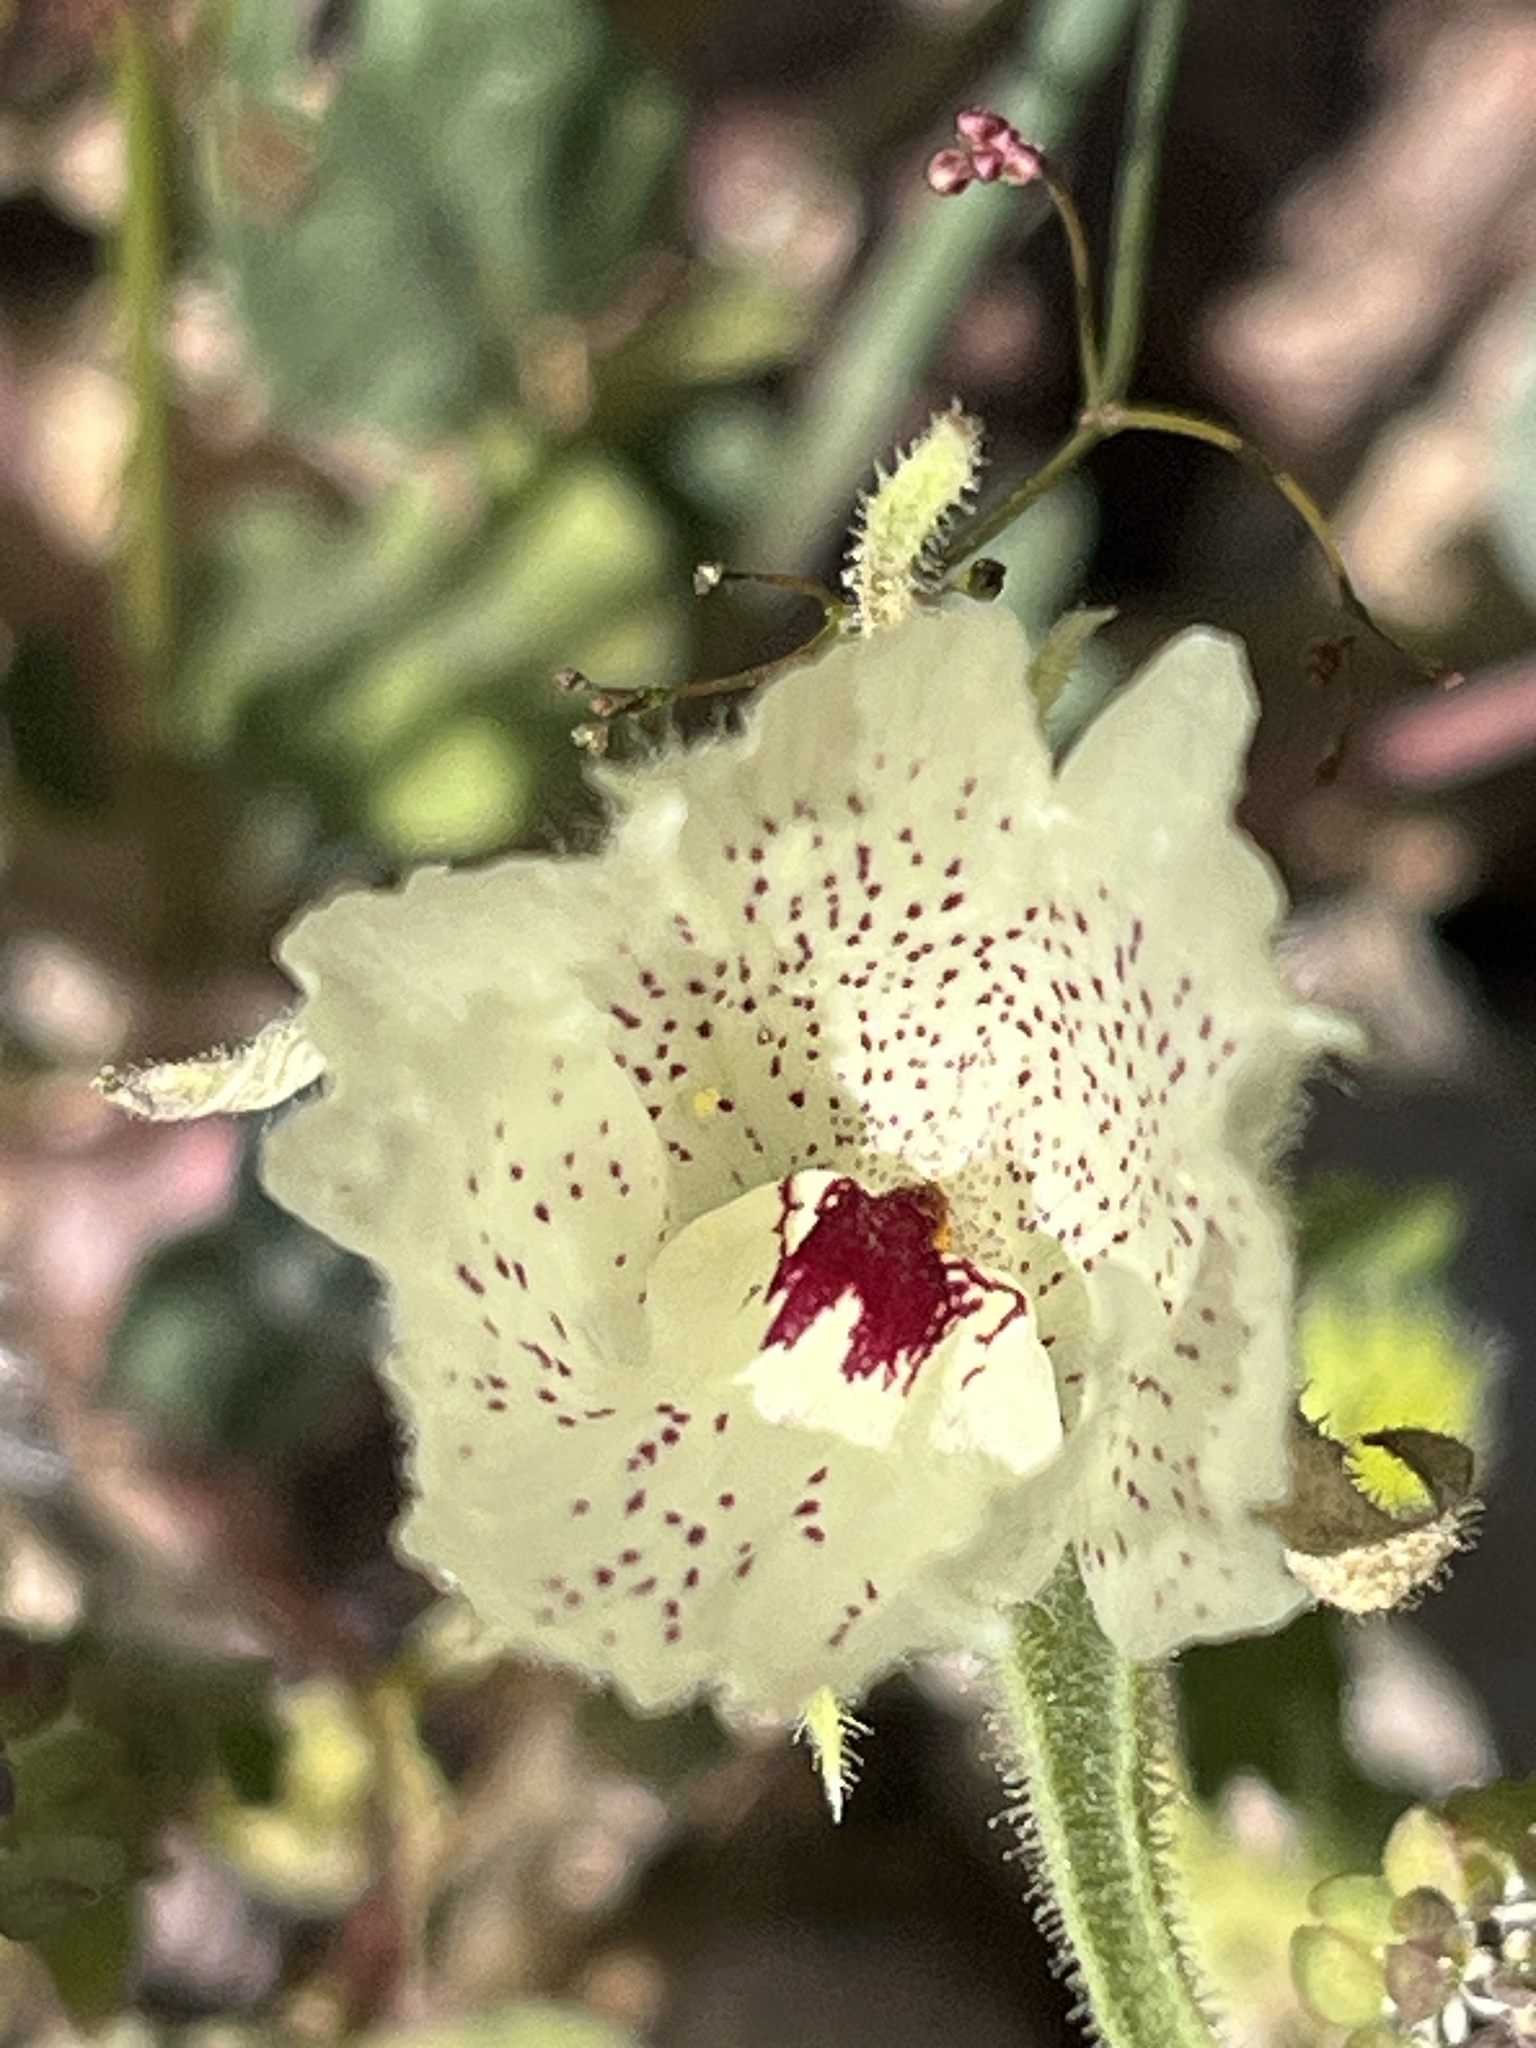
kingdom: Plantae
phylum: Tracheophyta
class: Magnoliopsida
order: Lamiales
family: Plantaginaceae
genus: Mohavea
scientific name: Mohavea confertiflora
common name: Ghost flower
